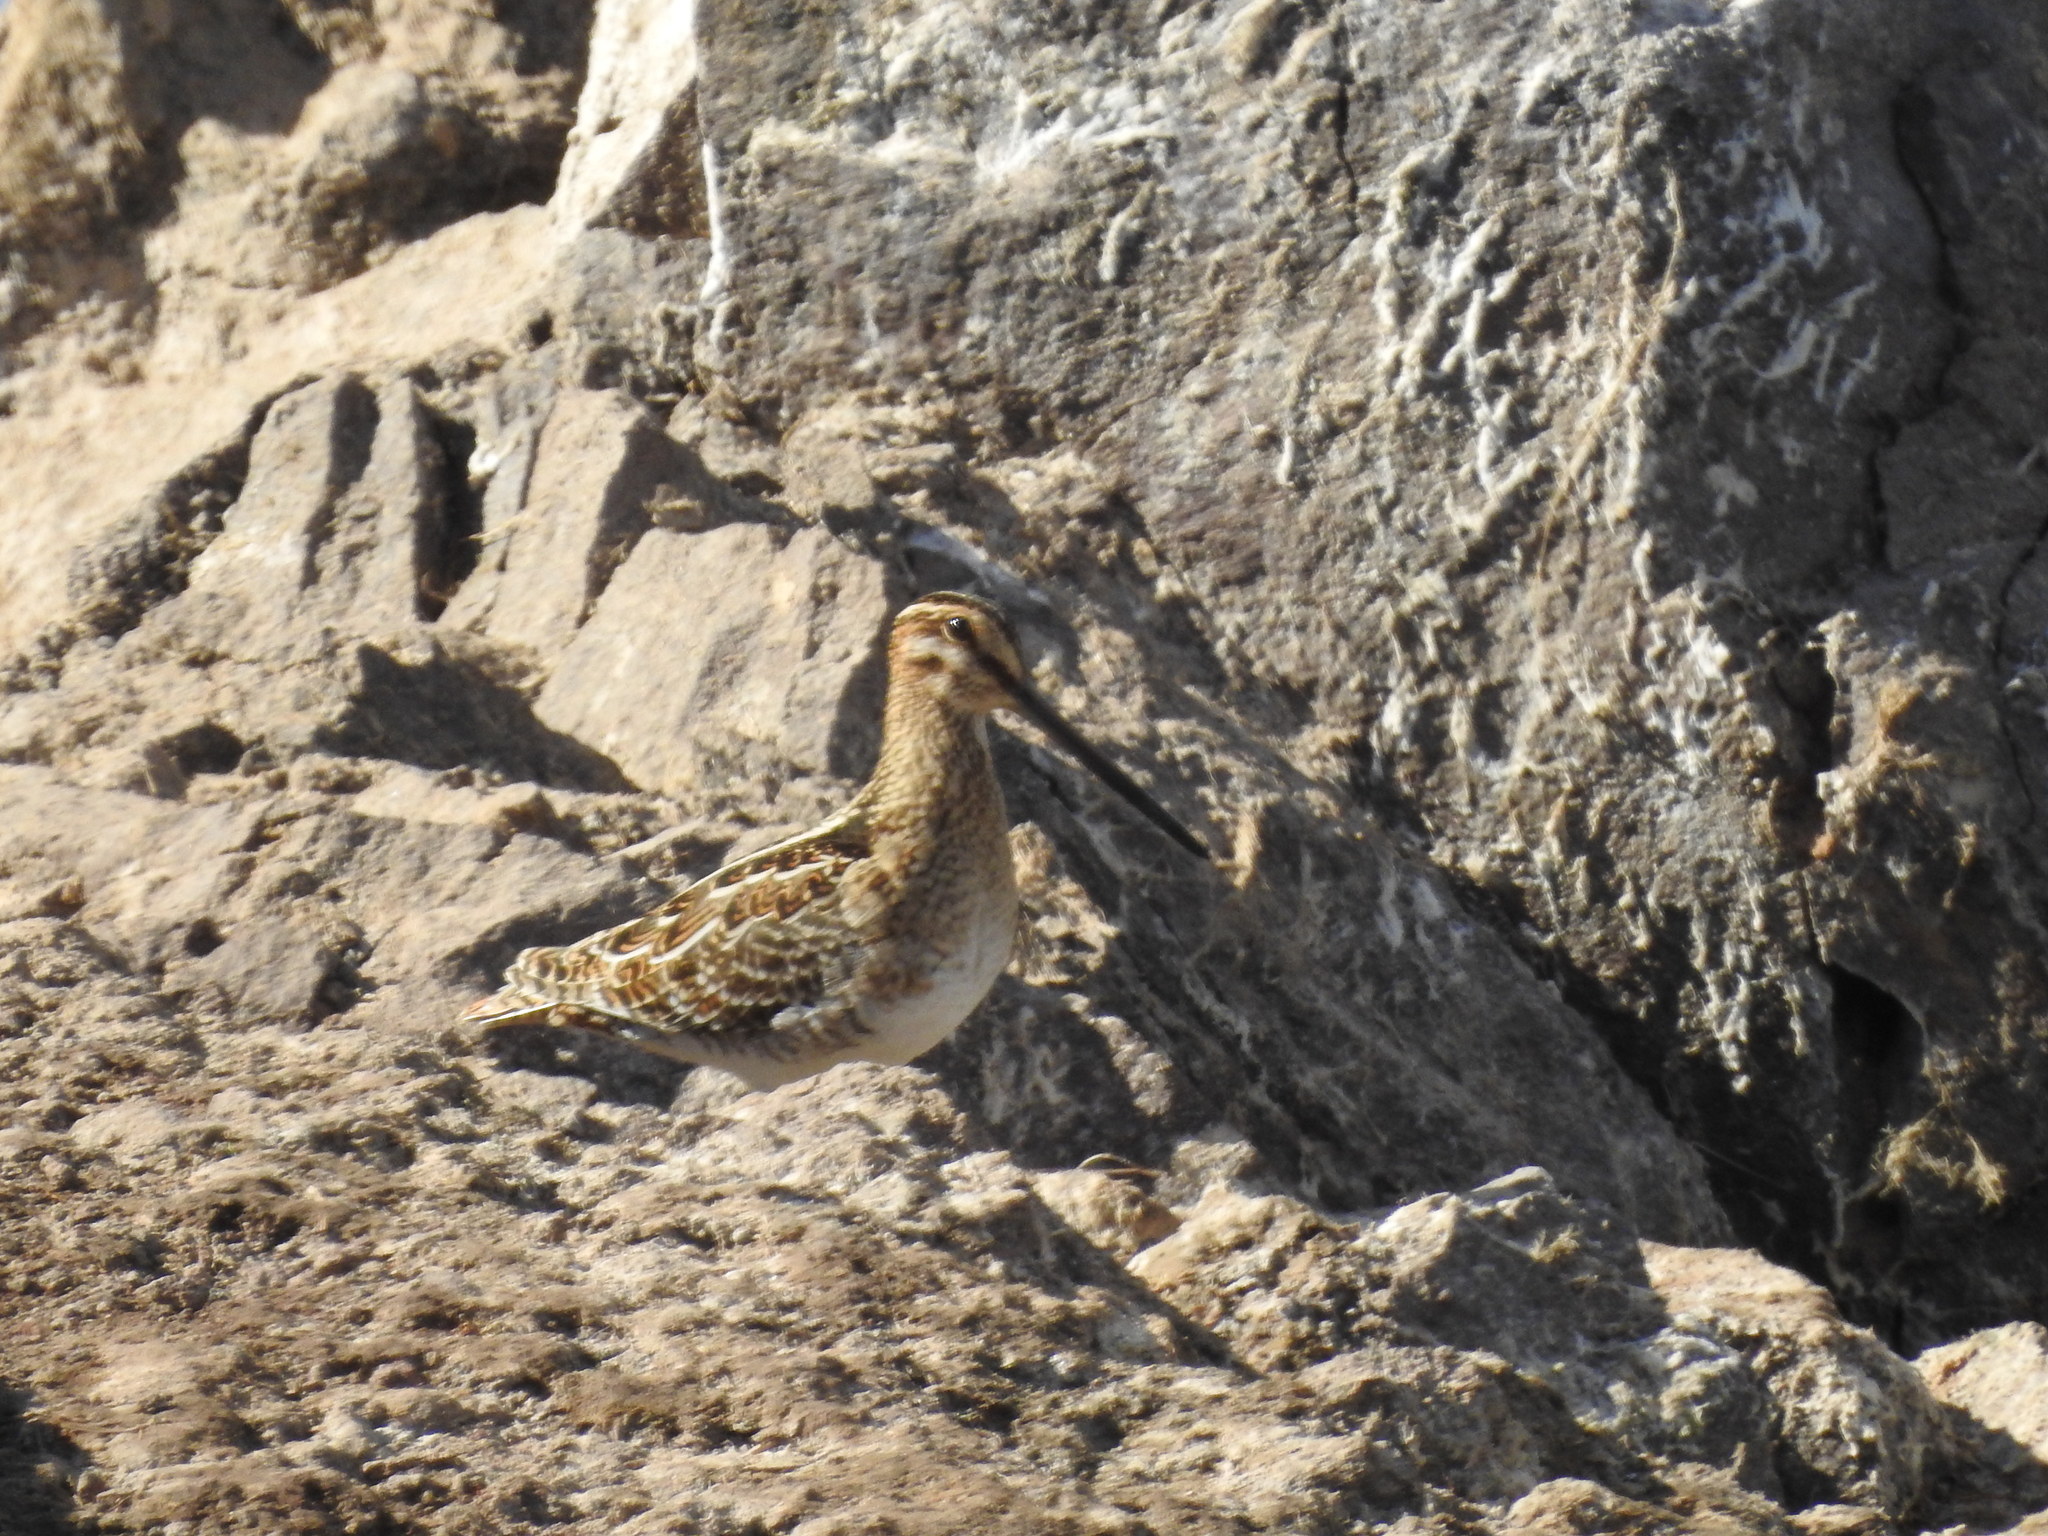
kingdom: Animalia
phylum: Chordata
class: Aves
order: Charadriiformes
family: Scolopacidae
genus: Gallinago
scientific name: Gallinago delicata
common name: Wilson's snipe
